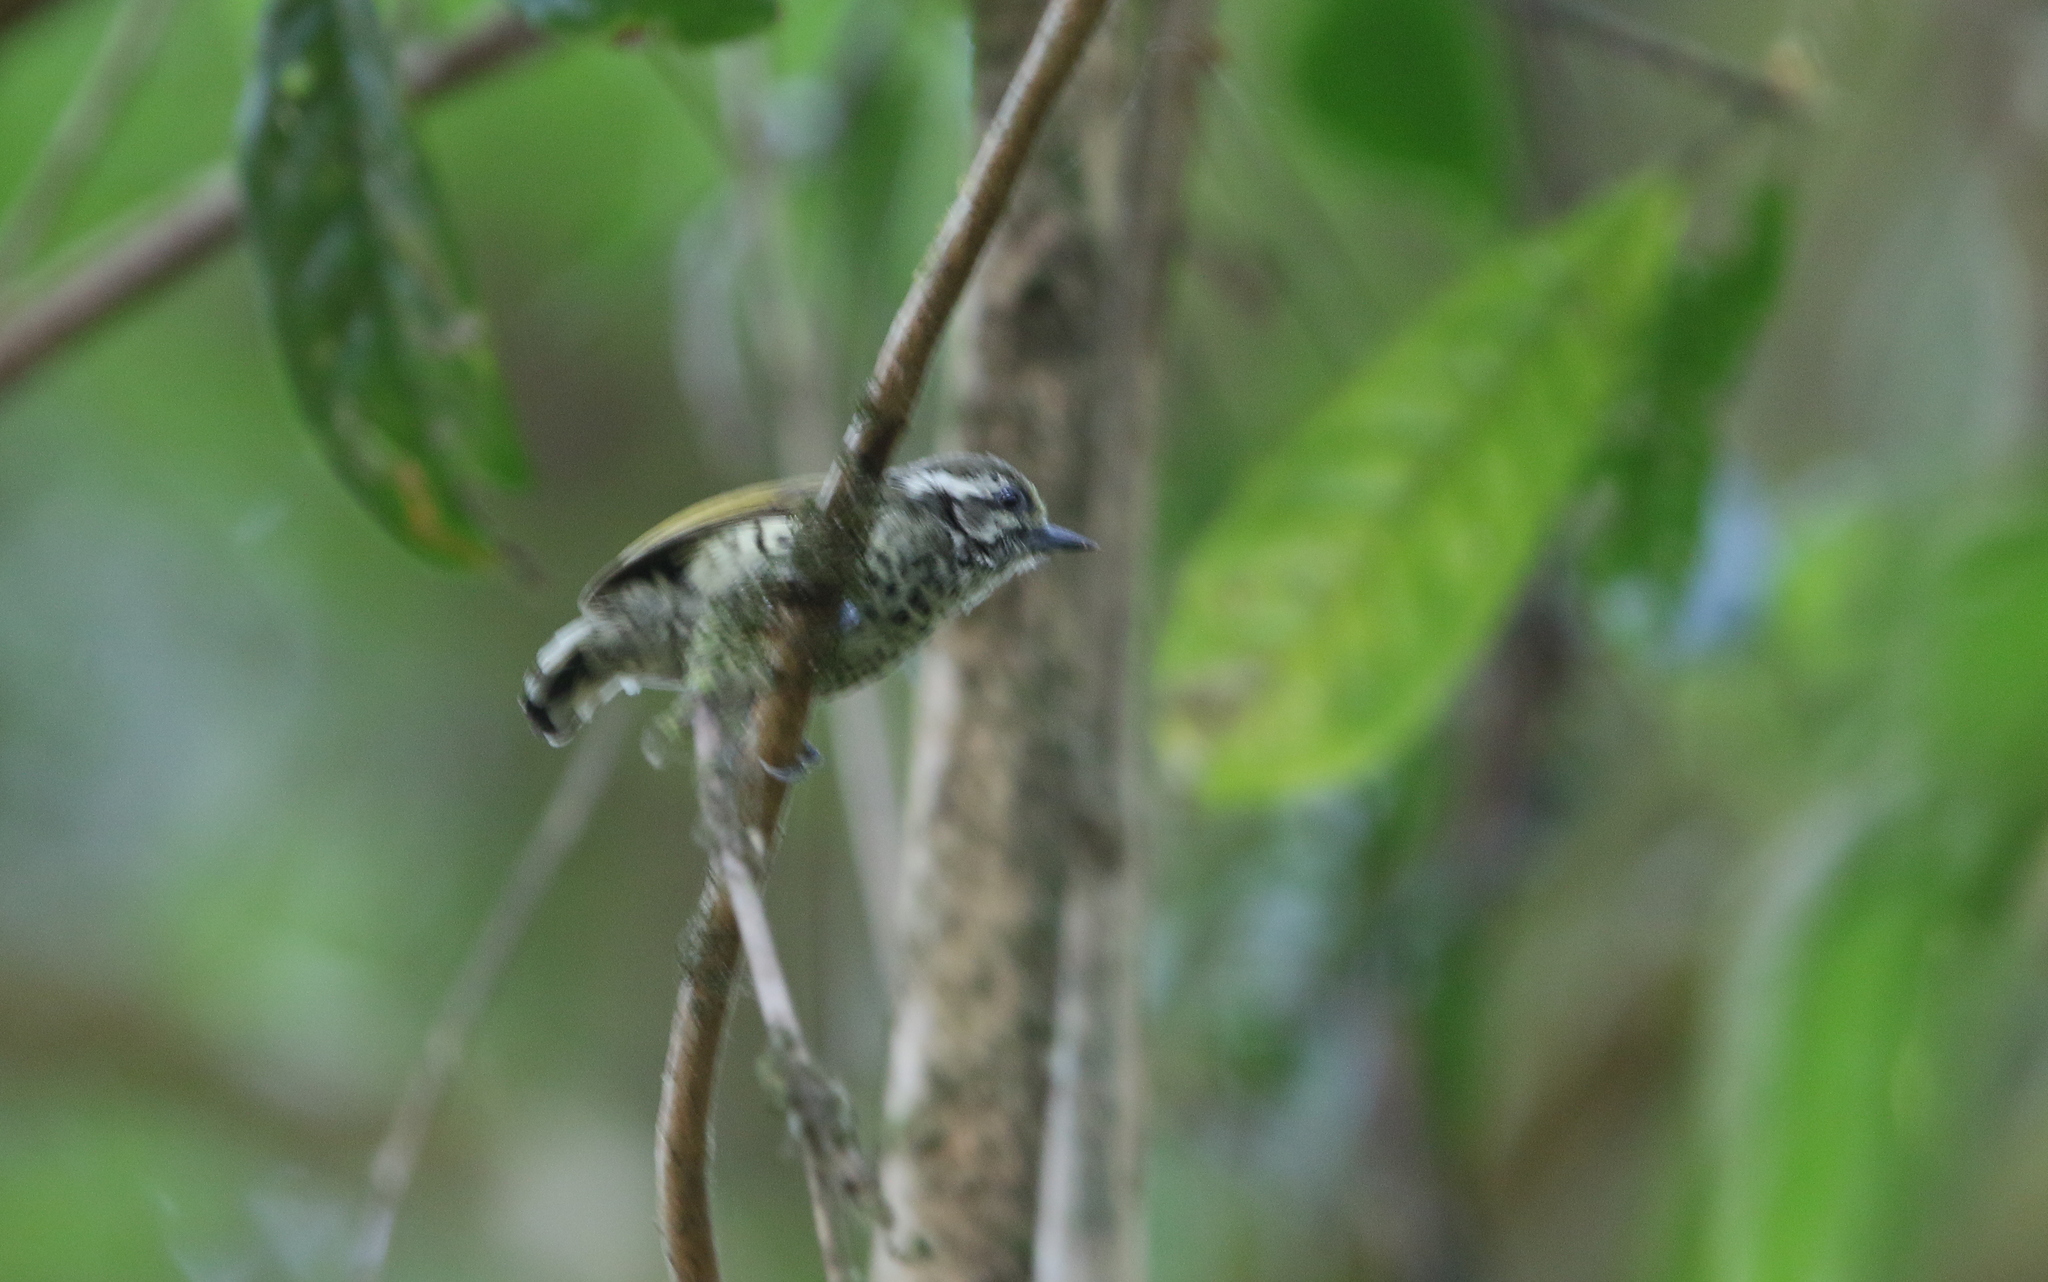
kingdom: Animalia
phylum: Chordata
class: Aves
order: Piciformes
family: Picidae
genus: Picumnus
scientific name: Picumnus innominatus
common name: Speckled piculet
